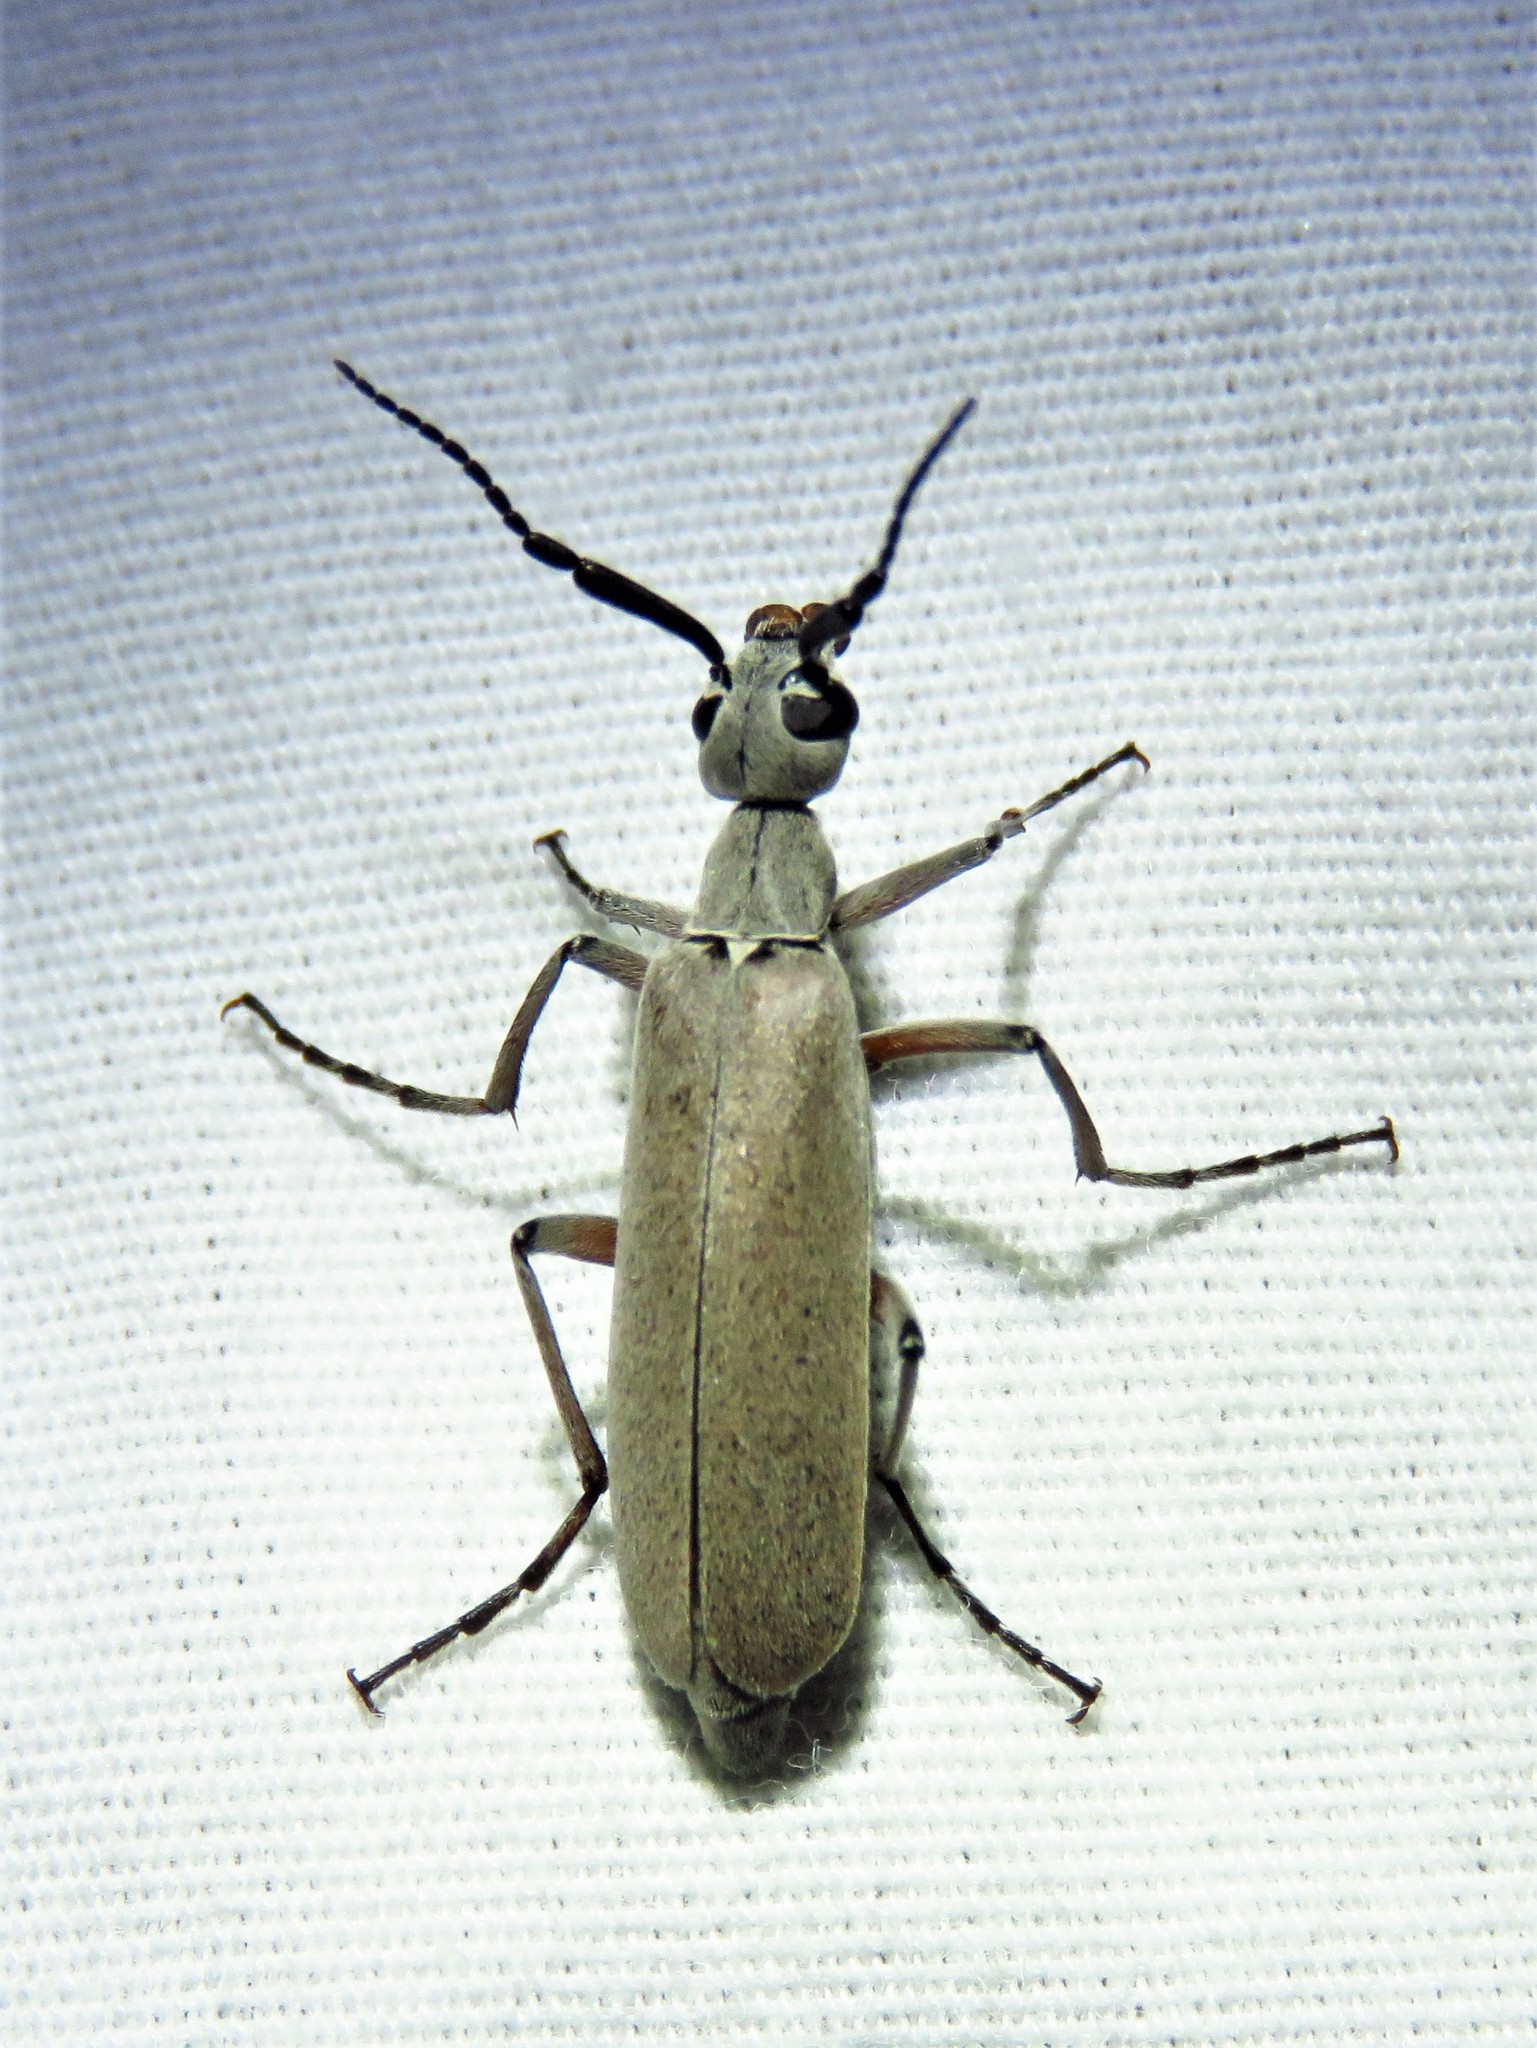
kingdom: Animalia
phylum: Arthropoda
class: Insecta
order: Coleoptera
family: Meloidae
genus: Epicauta
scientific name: Epicauta polingi
